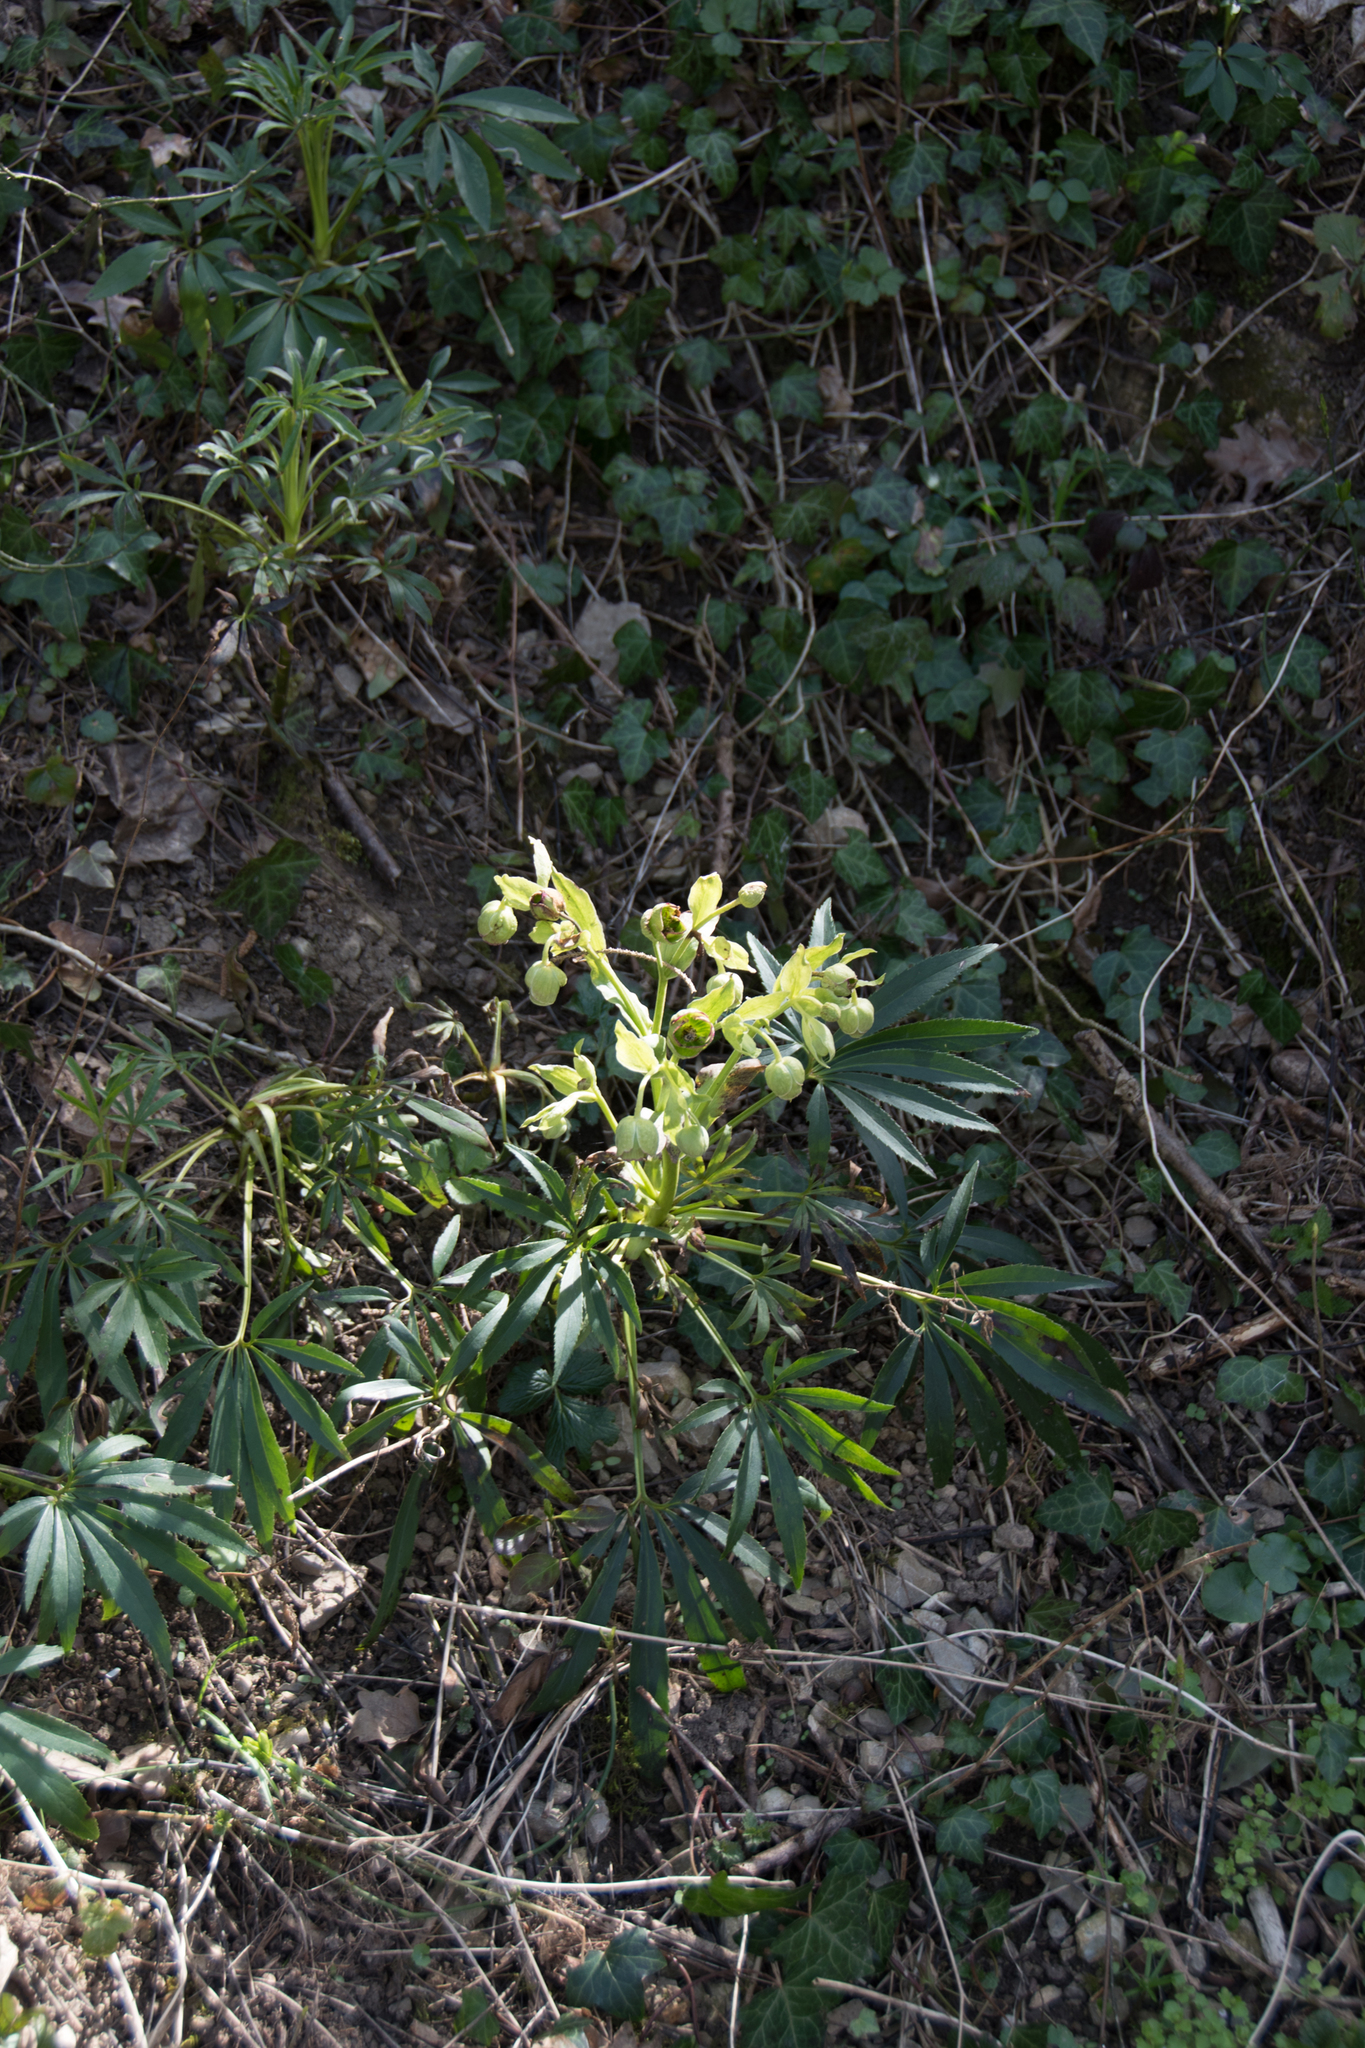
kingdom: Plantae
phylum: Tracheophyta
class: Magnoliopsida
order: Ranunculales
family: Ranunculaceae
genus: Helleborus
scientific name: Helleborus foetidus
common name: Stinking hellebore
